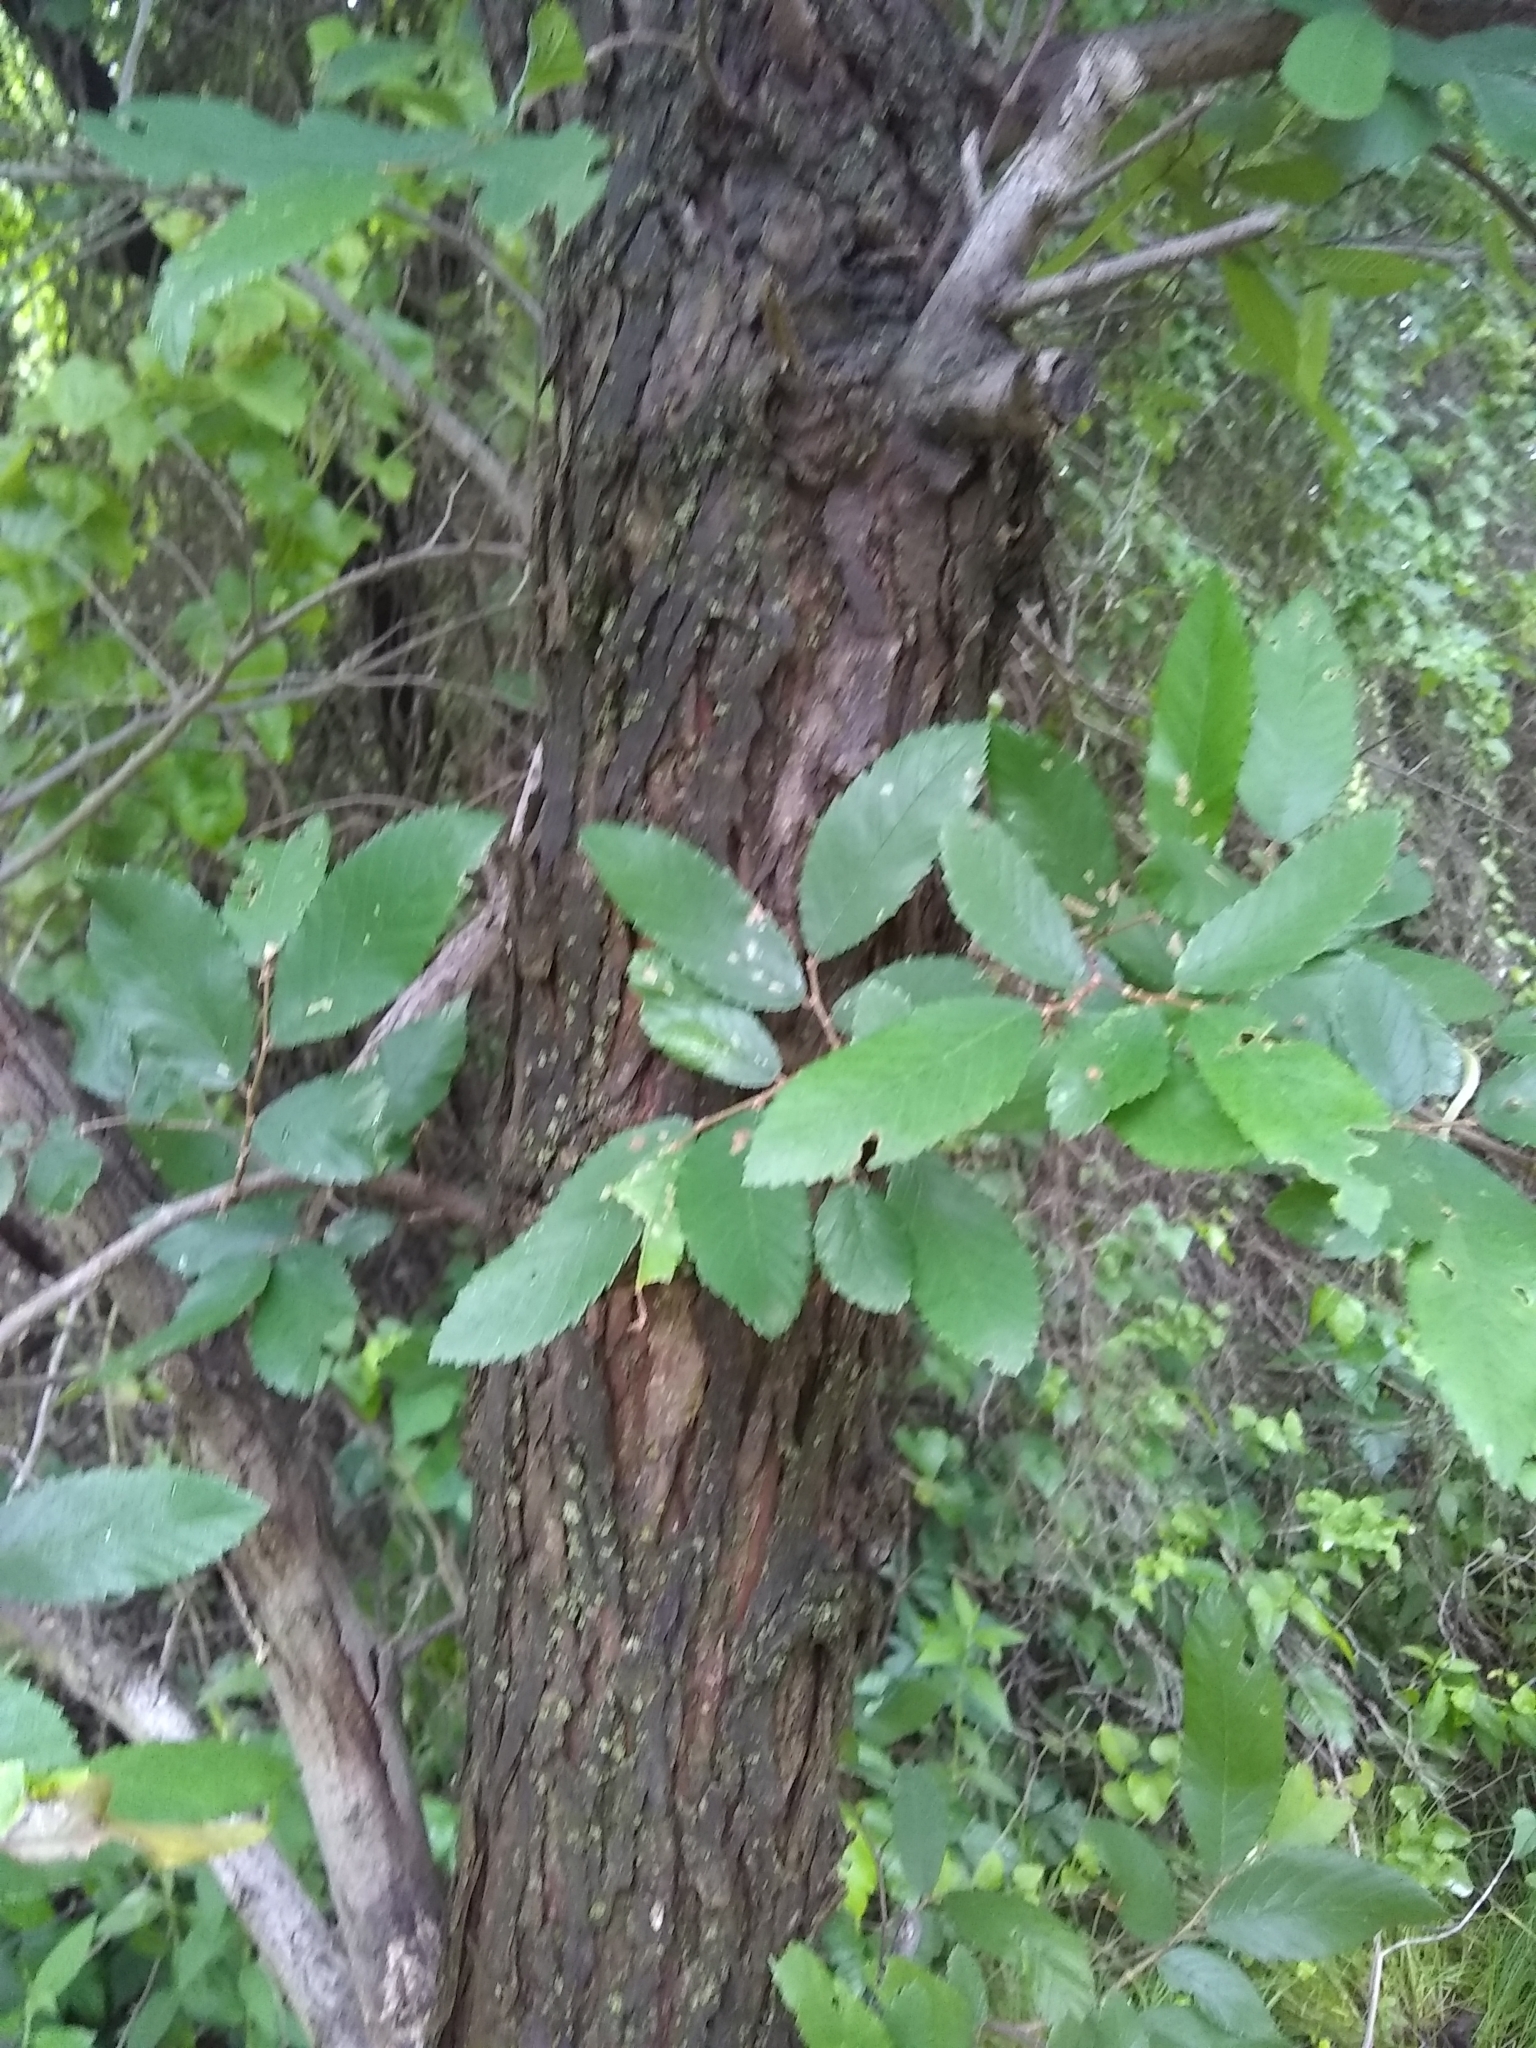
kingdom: Plantae
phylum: Tracheophyta
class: Magnoliopsida
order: Rosales
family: Ulmaceae
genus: Ulmus
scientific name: Ulmus crassifolia
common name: Basket elm
